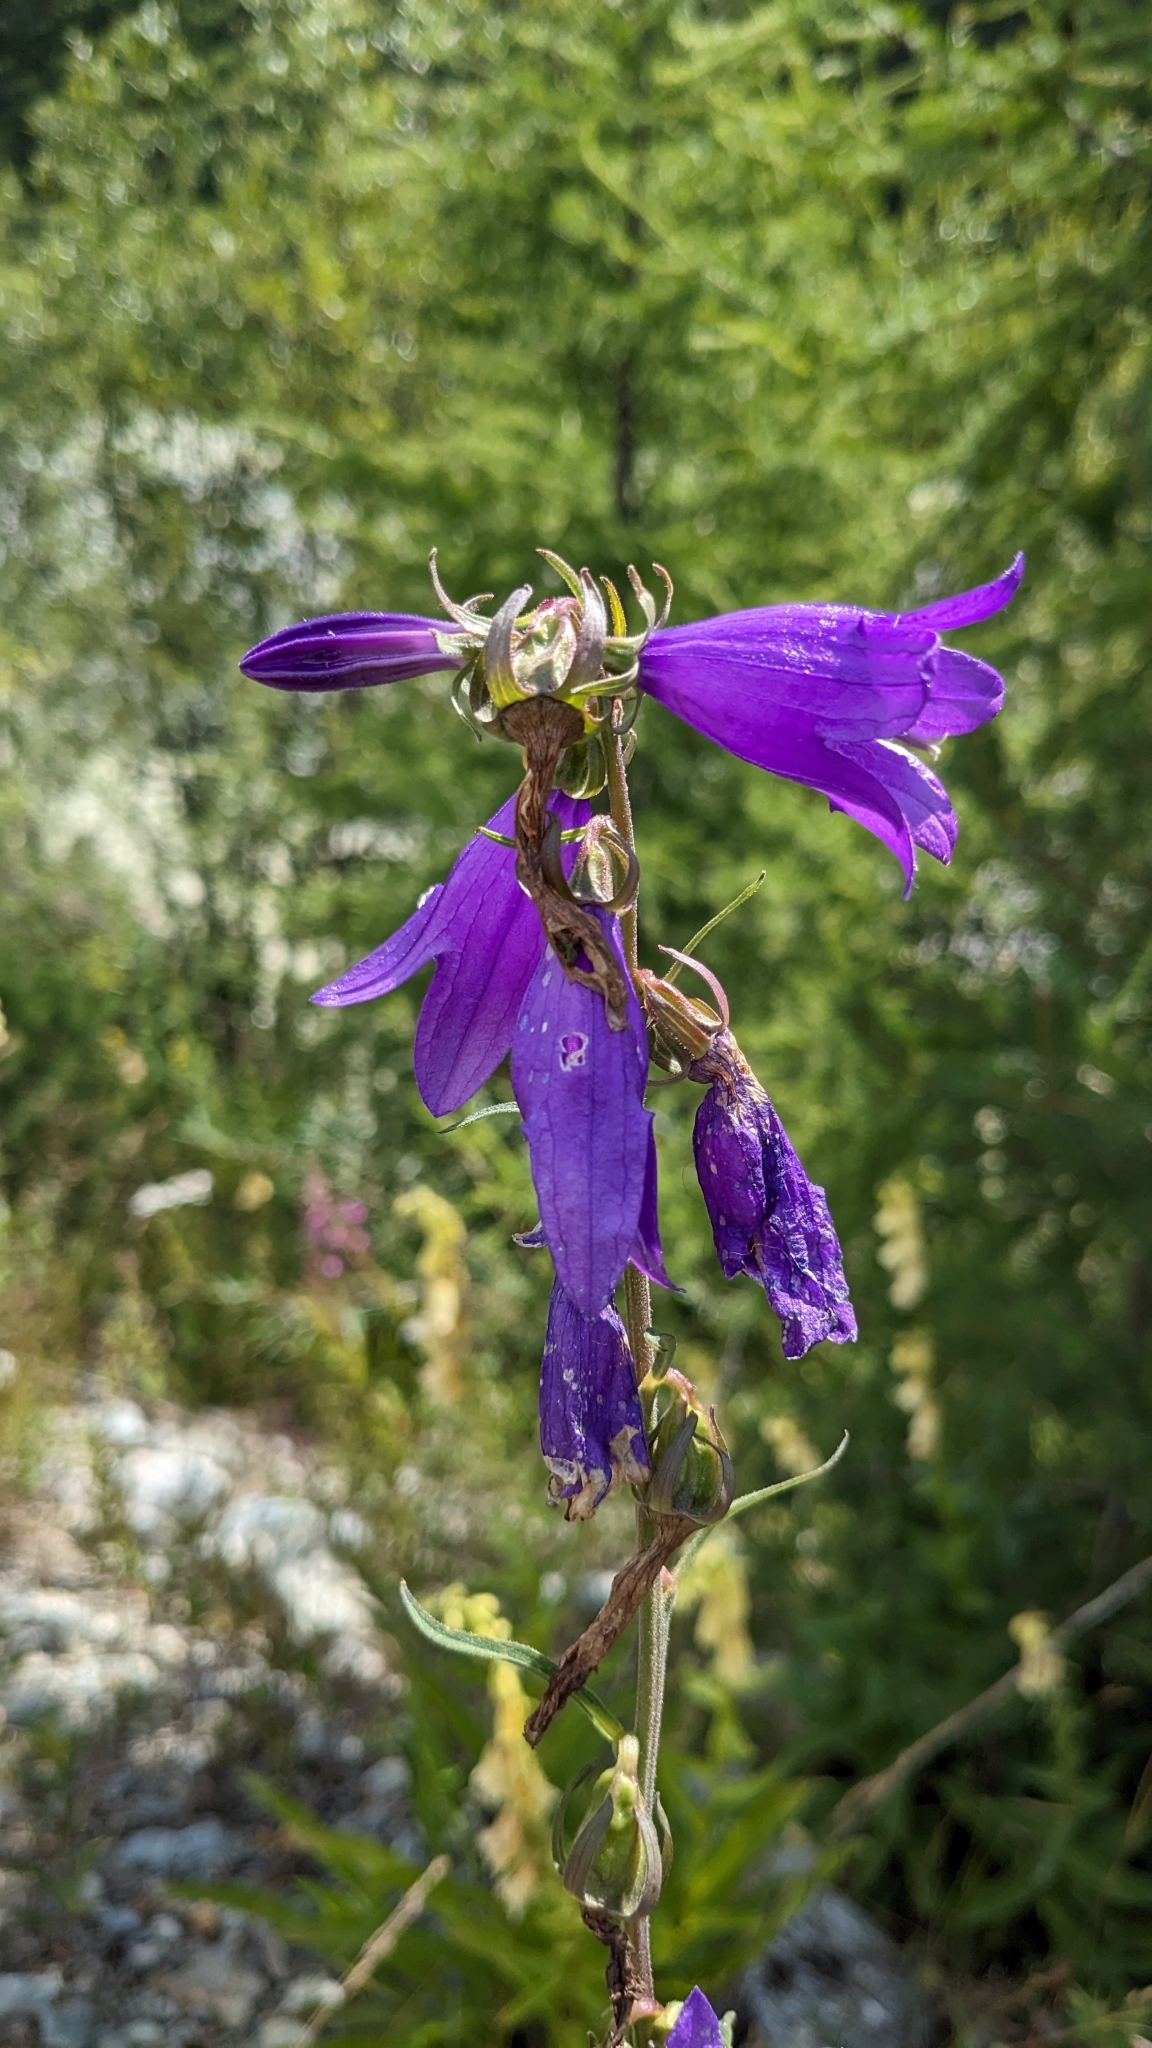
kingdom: Plantae
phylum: Tracheophyta
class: Magnoliopsida
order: Asterales
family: Campanulaceae
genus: Campanula
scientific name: Campanula rapunculoides
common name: Creeping bellflower
